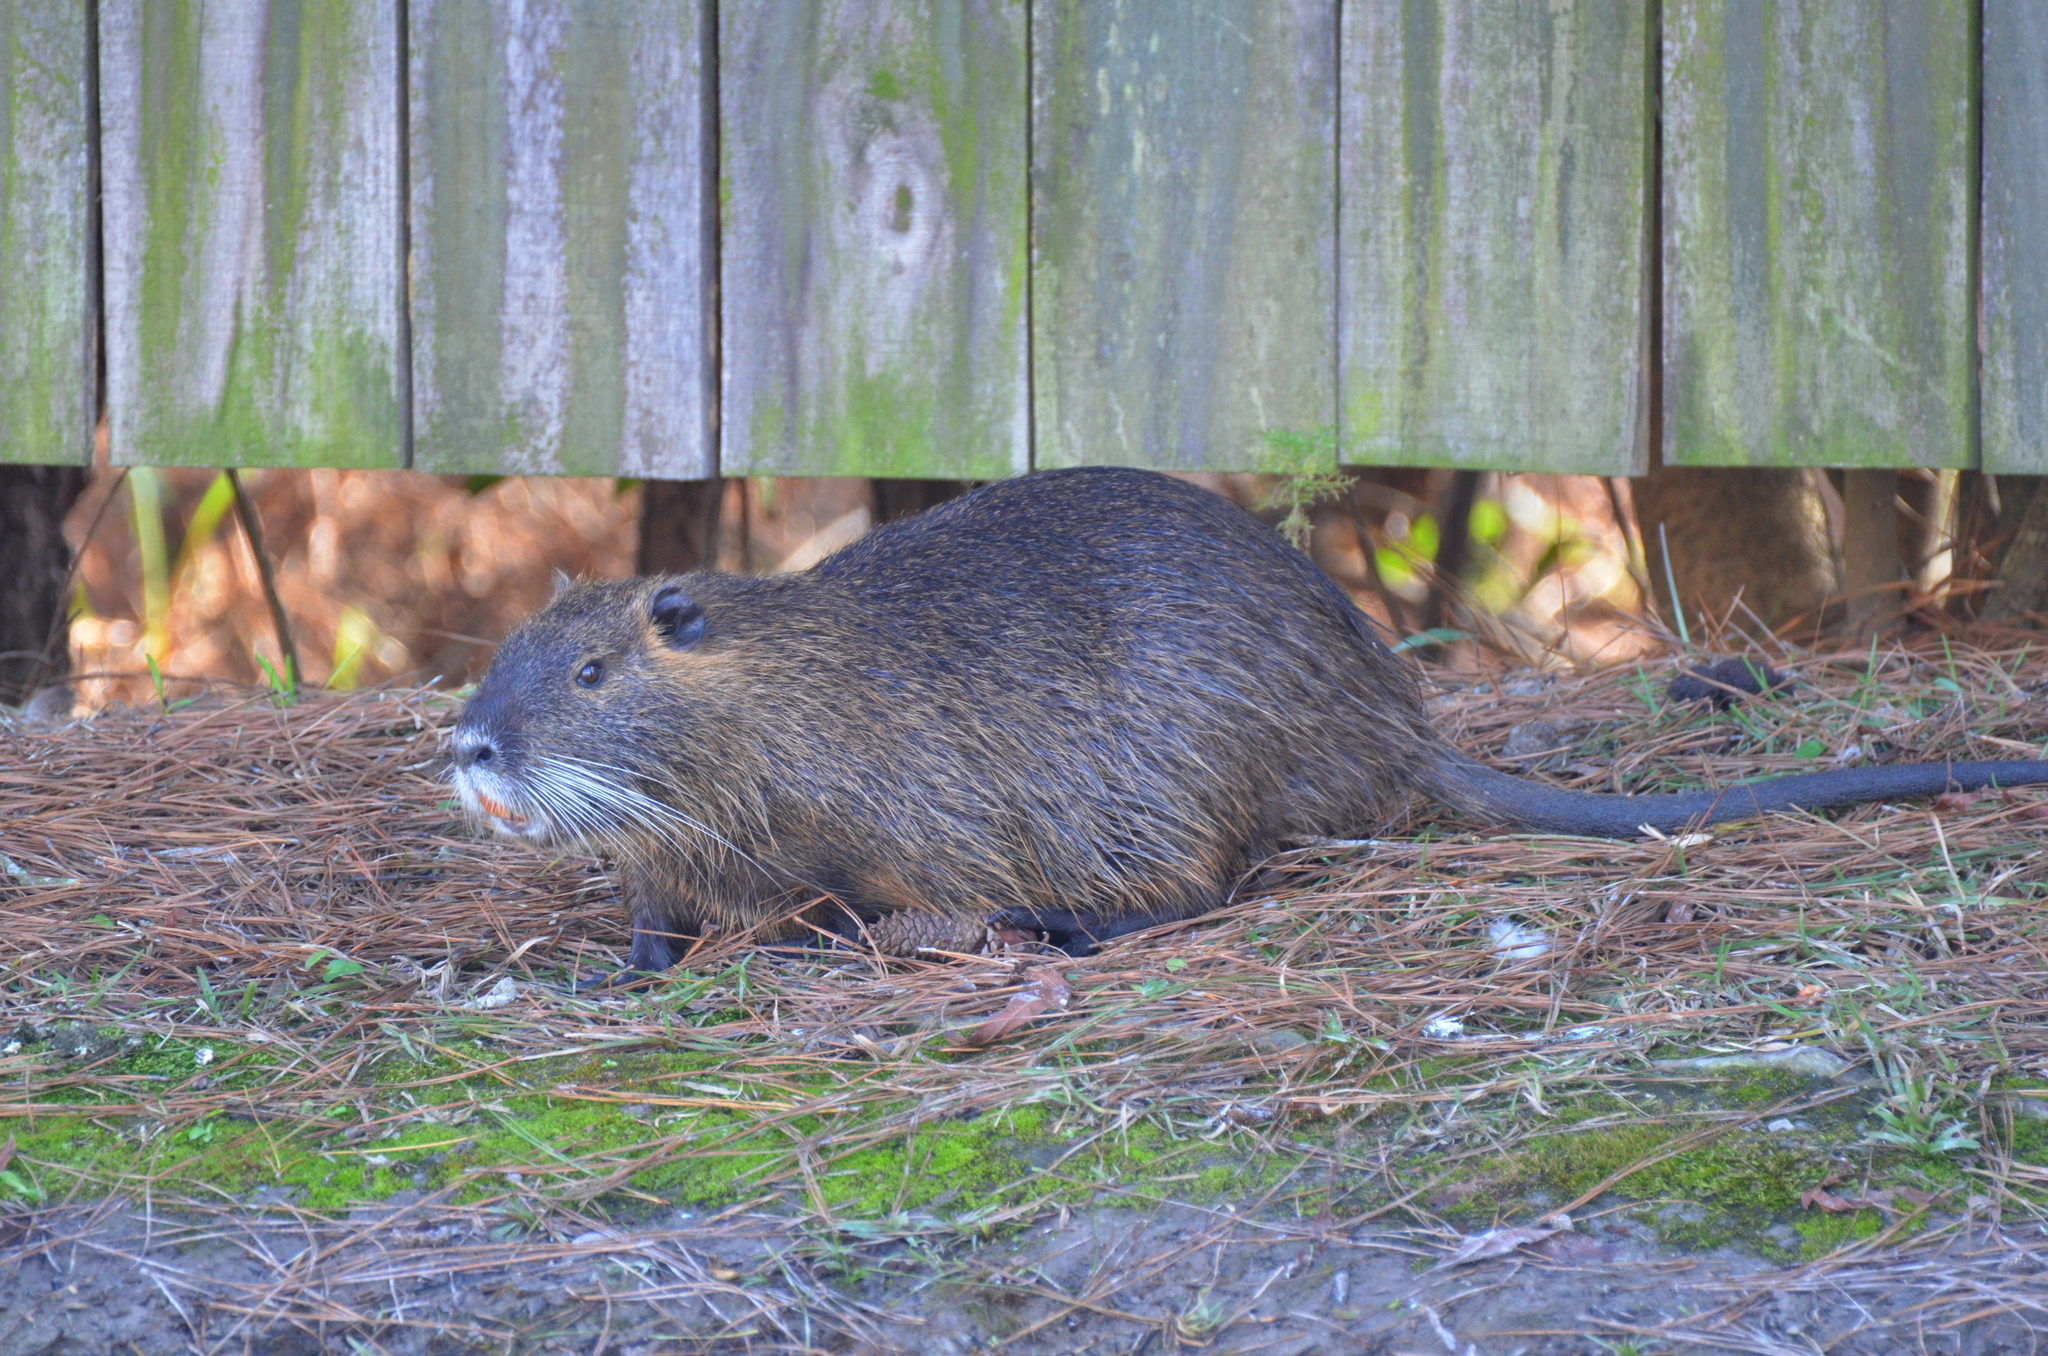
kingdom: Animalia
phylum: Chordata
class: Mammalia
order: Rodentia
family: Myocastoridae
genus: Myocastor
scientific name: Myocastor coypus
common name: Coypu
